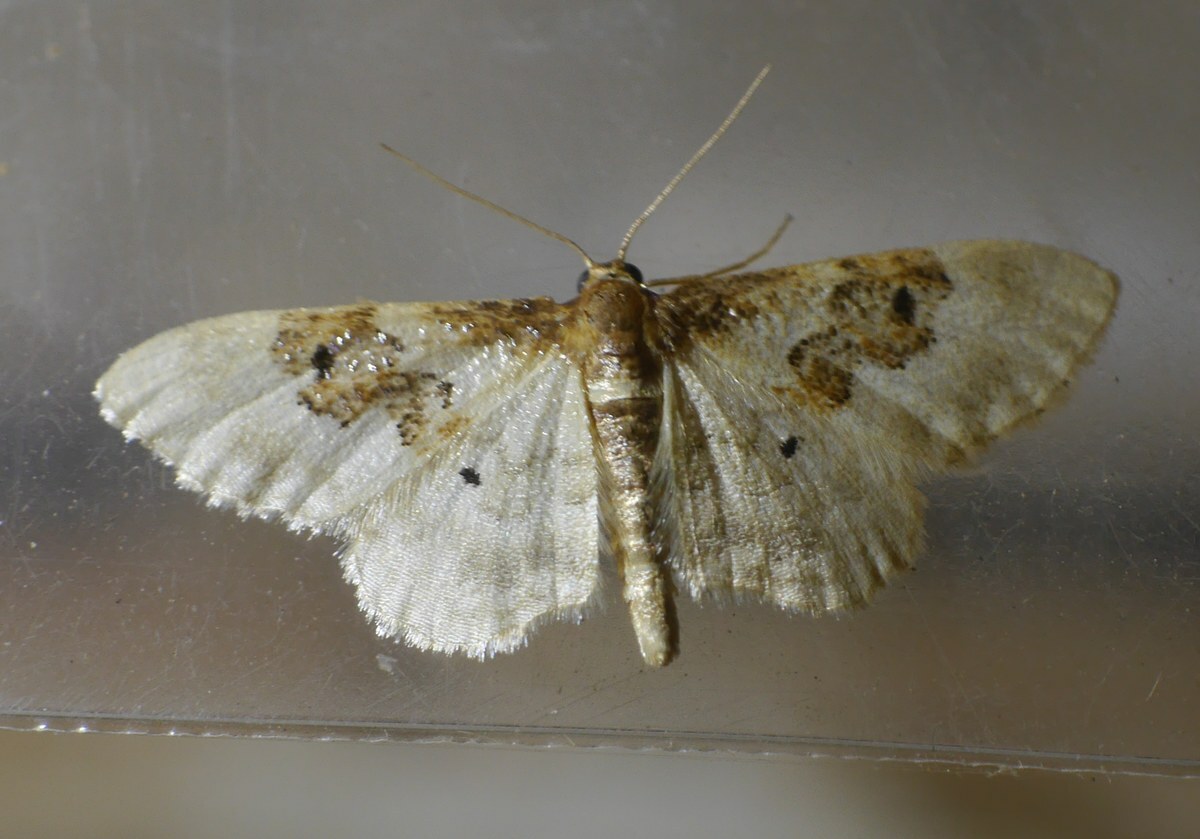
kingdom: Animalia
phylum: Arthropoda
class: Insecta
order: Lepidoptera
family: Geometridae
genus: Idaea
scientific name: Idaea rusticata
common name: Least carpet
